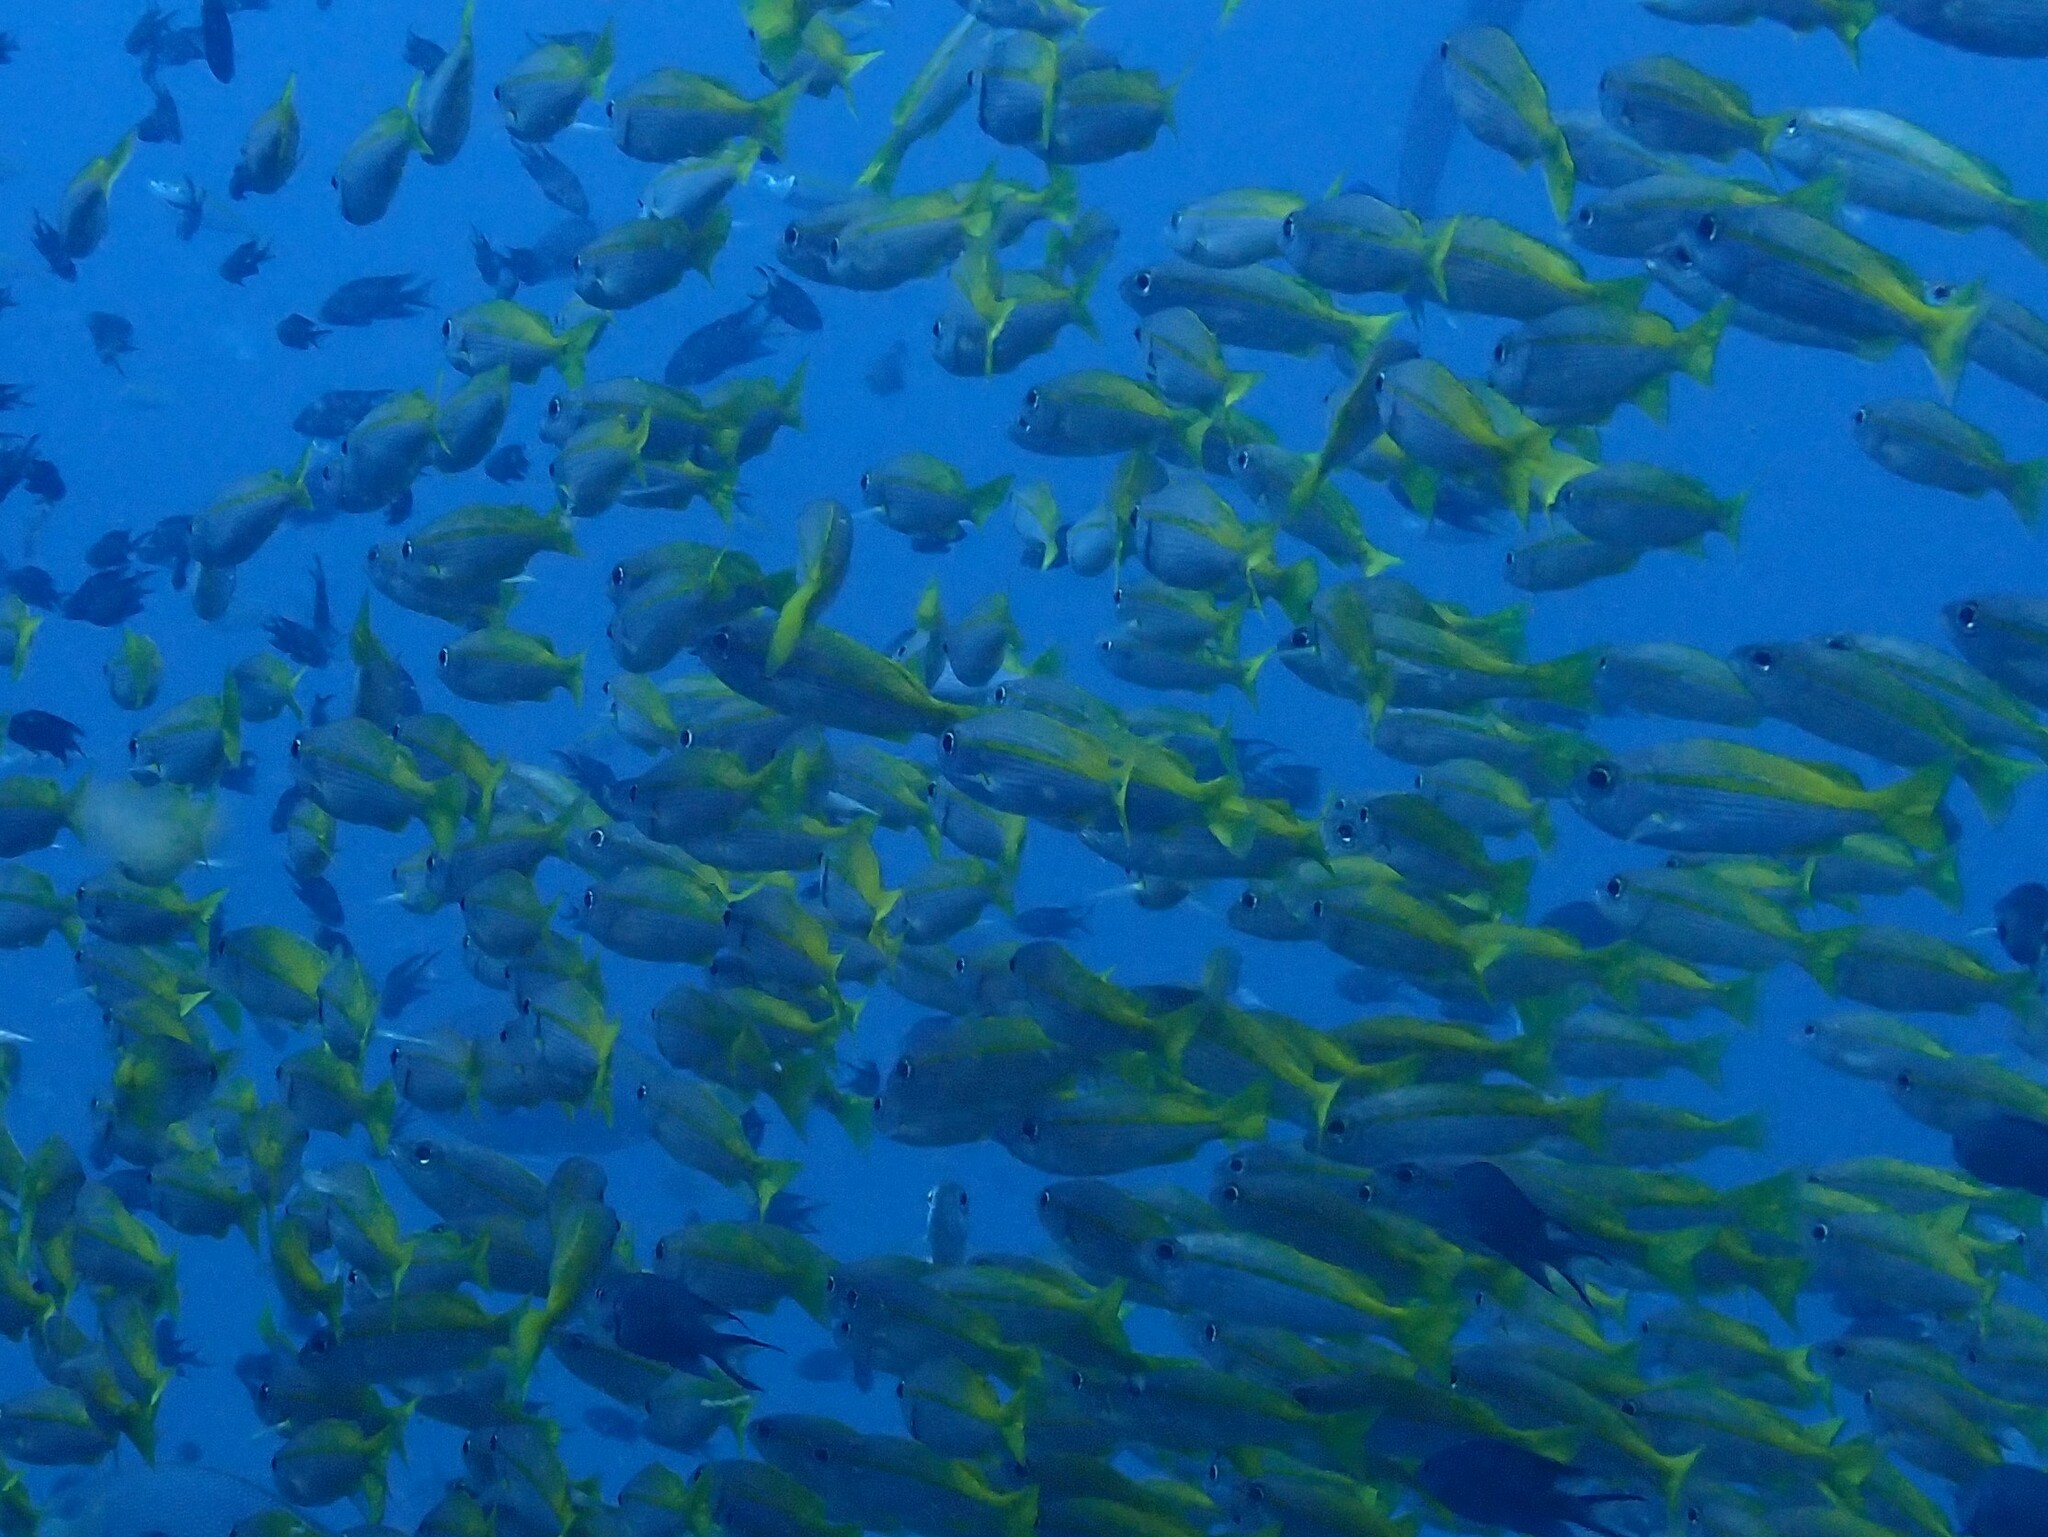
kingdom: Animalia
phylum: Chordata
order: Perciformes
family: Lutjanidae
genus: Lutjanus
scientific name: Lutjanus lutjanus
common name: Bigeye snapper
